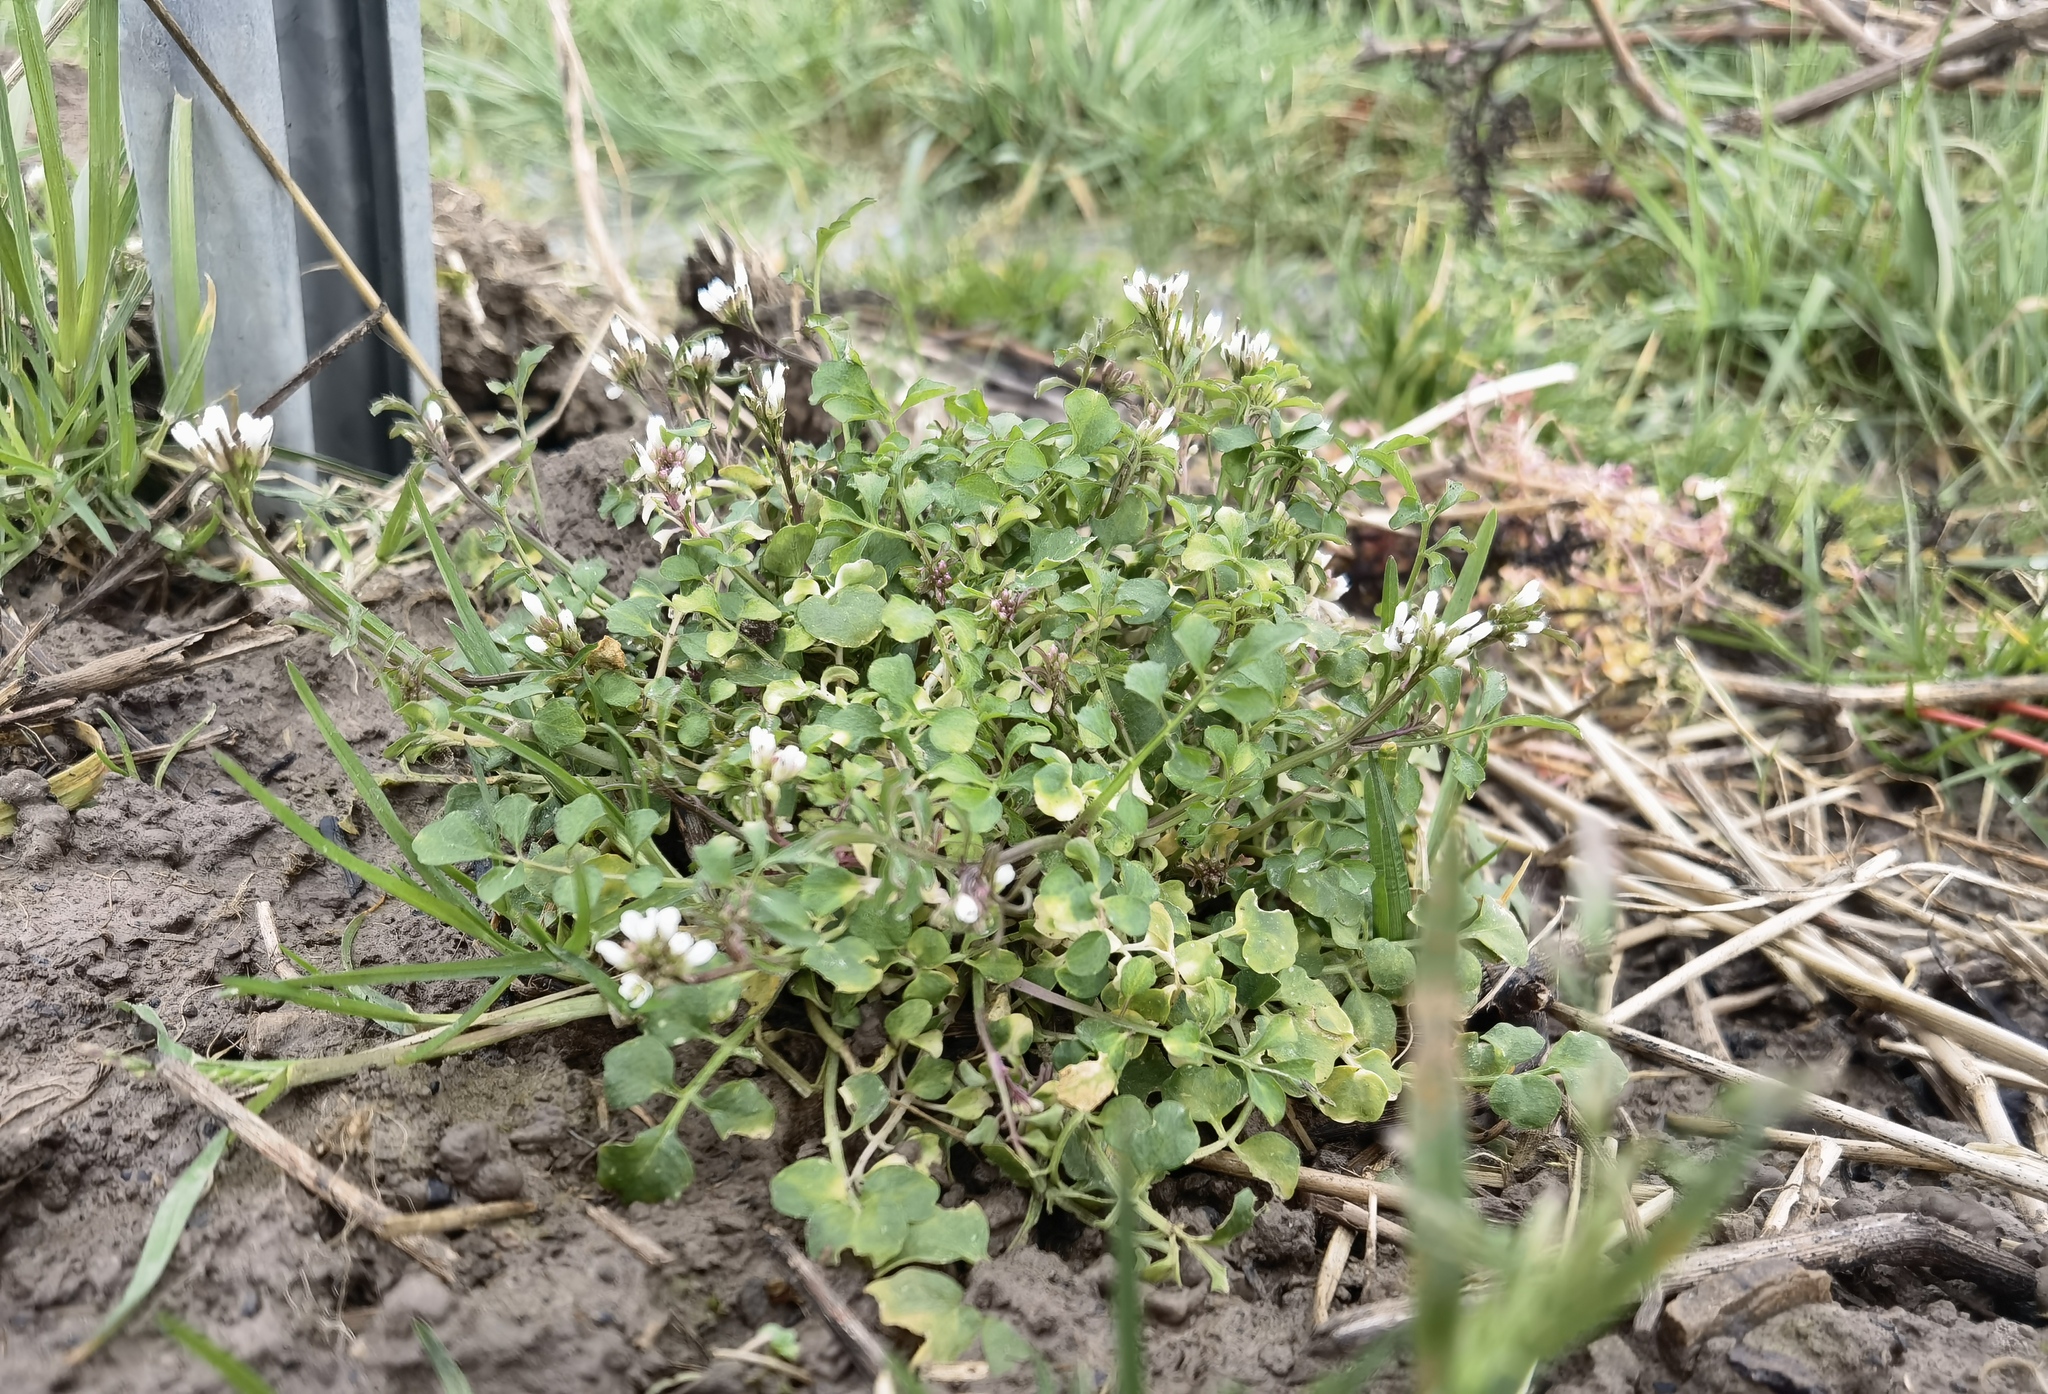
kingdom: Plantae
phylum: Tracheophyta
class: Magnoliopsida
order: Brassicales
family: Brassicaceae
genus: Cardamine
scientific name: Cardamine hirsuta
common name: Hairy bittercress
